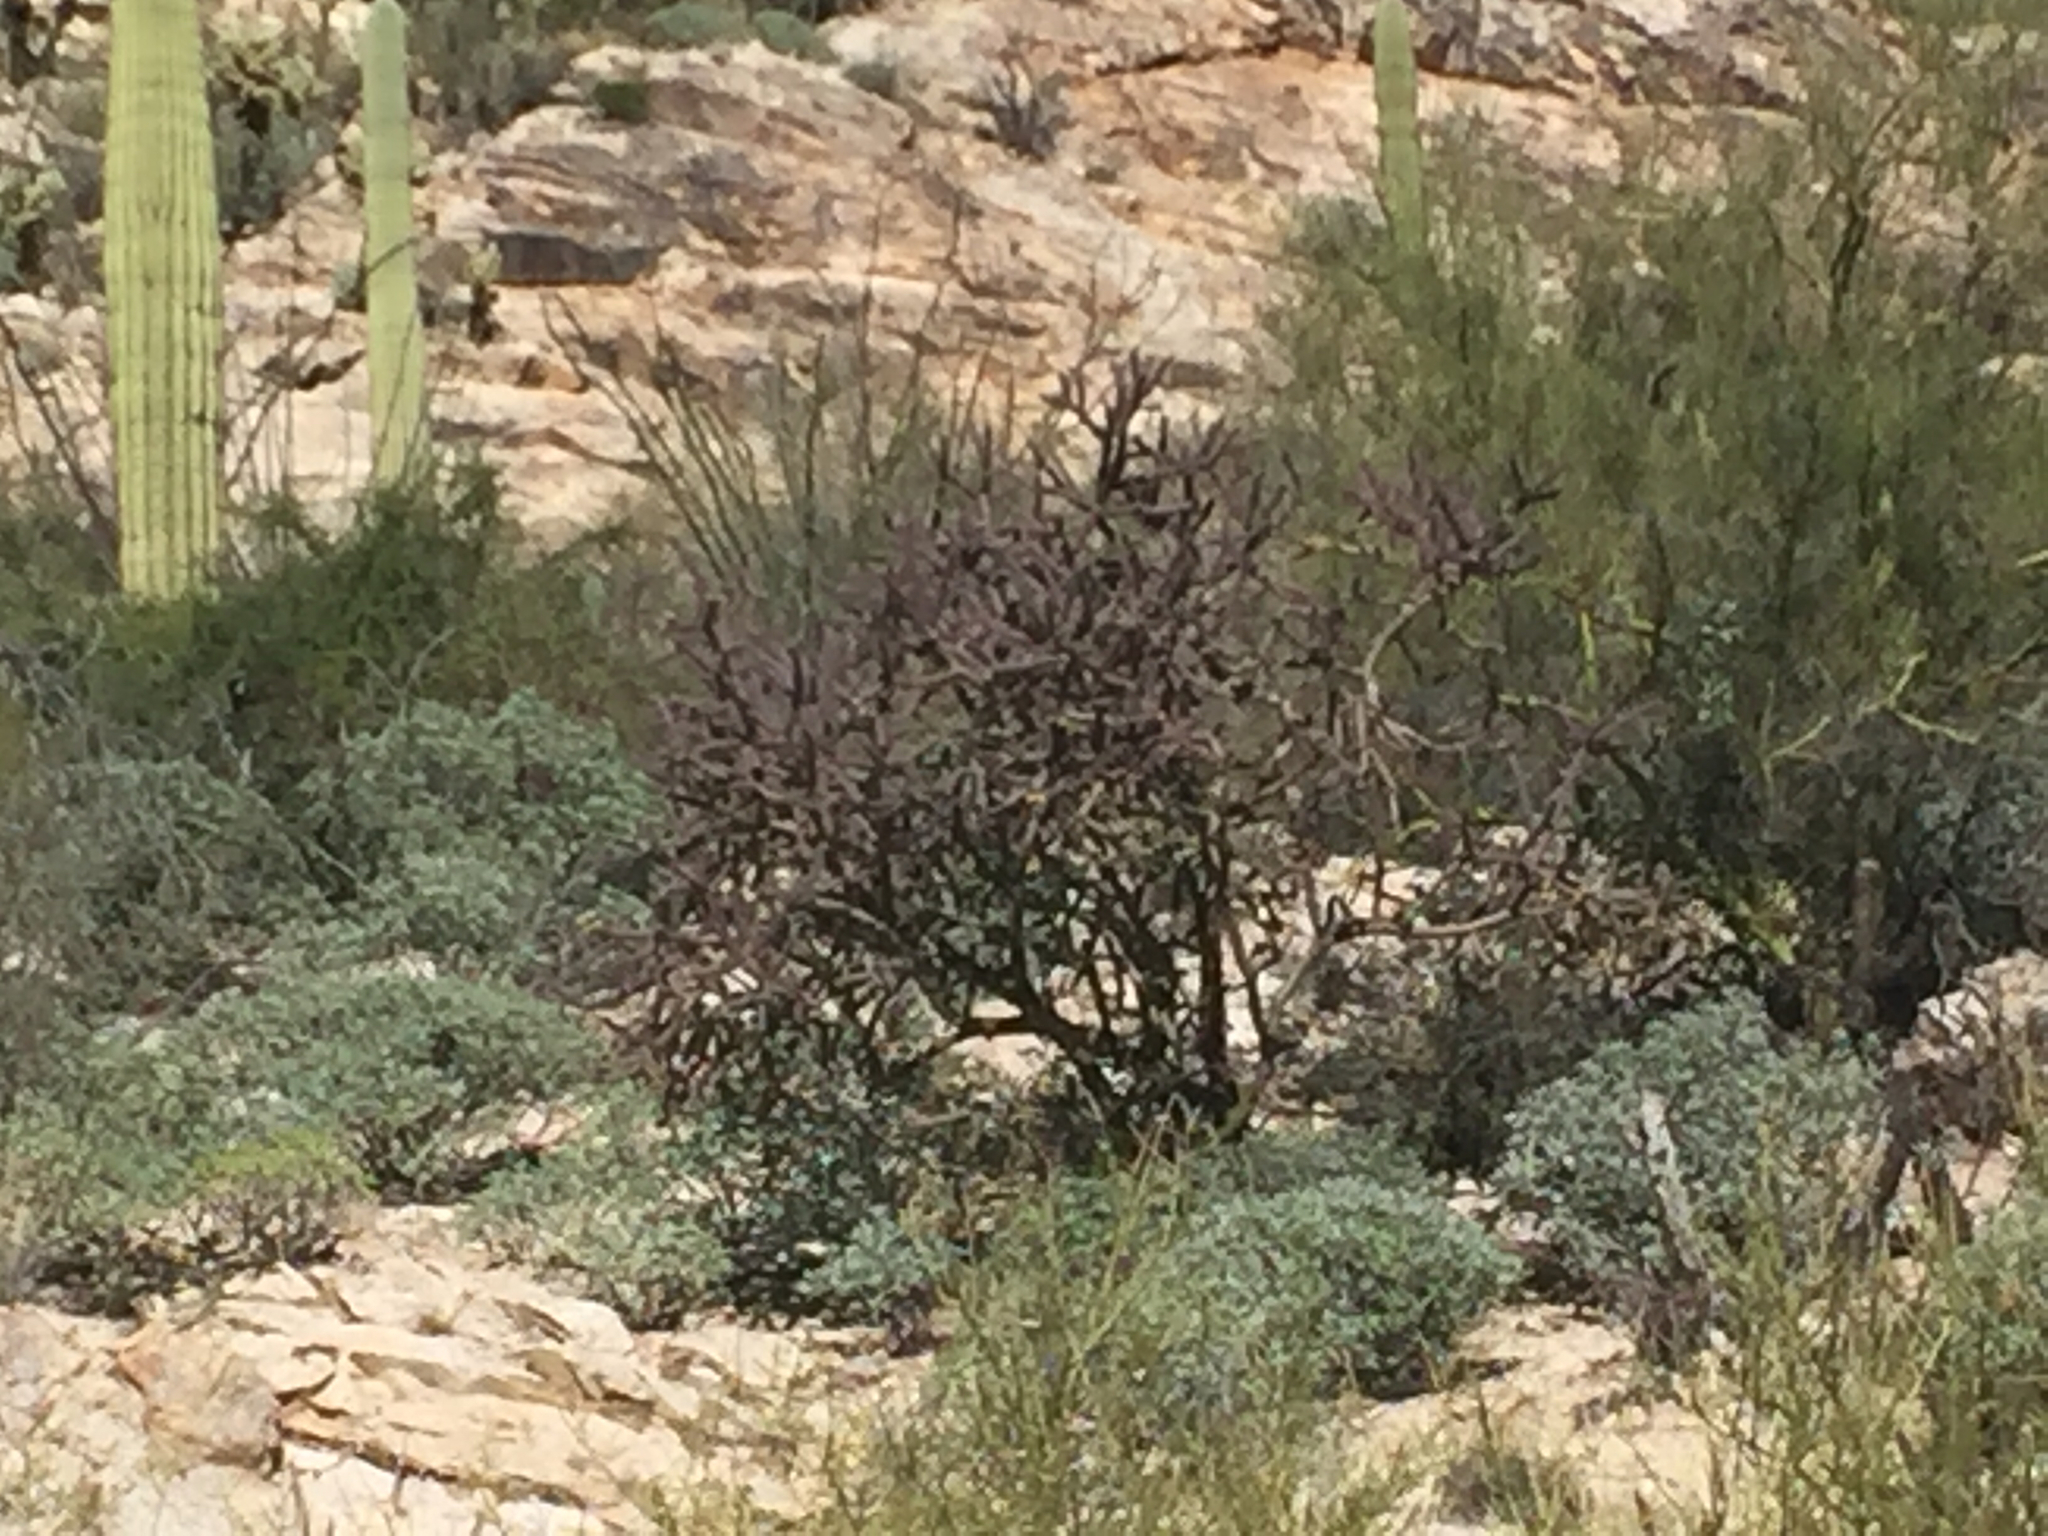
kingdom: Plantae
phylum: Tracheophyta
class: Magnoliopsida
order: Caryophyllales
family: Cactaceae
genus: Cylindropuntia
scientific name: Cylindropuntia thurberi
